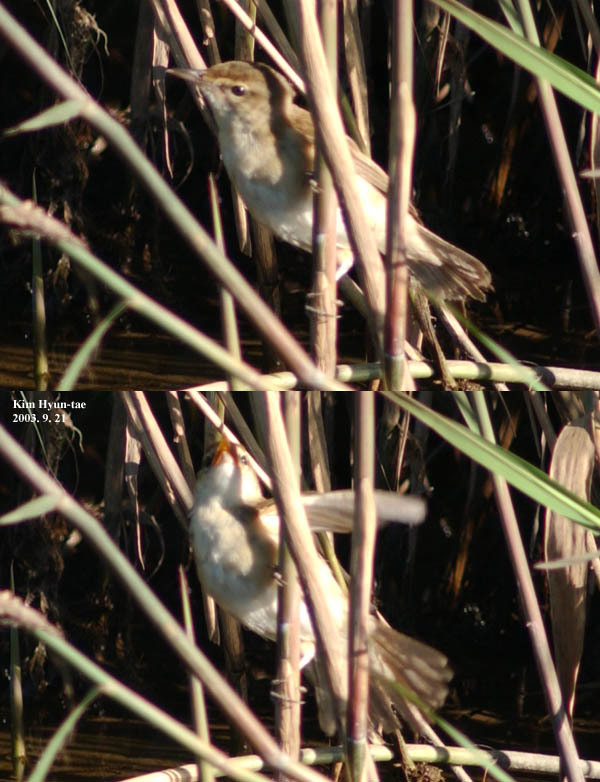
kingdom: Animalia
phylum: Chordata
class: Aves
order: Passeriformes
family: Acrocephalidae
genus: Acrocephalus
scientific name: Acrocephalus orientalis
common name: Oriental reed warbler
